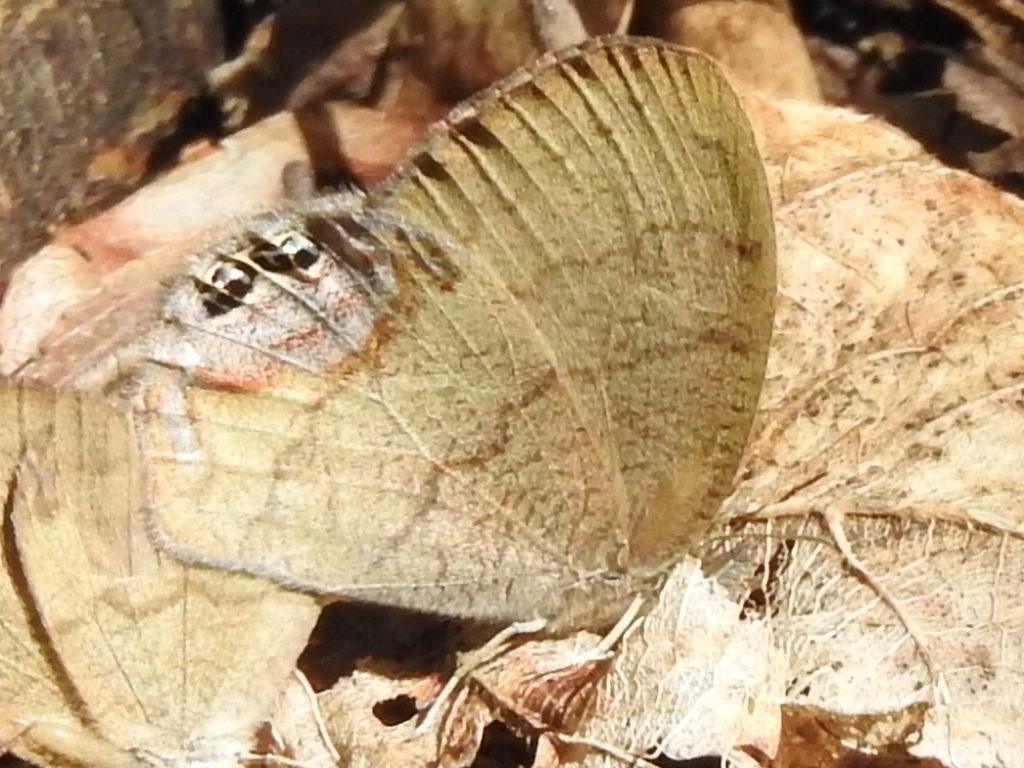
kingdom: Animalia
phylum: Arthropoda
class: Insecta
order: Lepidoptera
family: Nymphalidae
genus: Euptychia
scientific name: Euptychia cornelius
